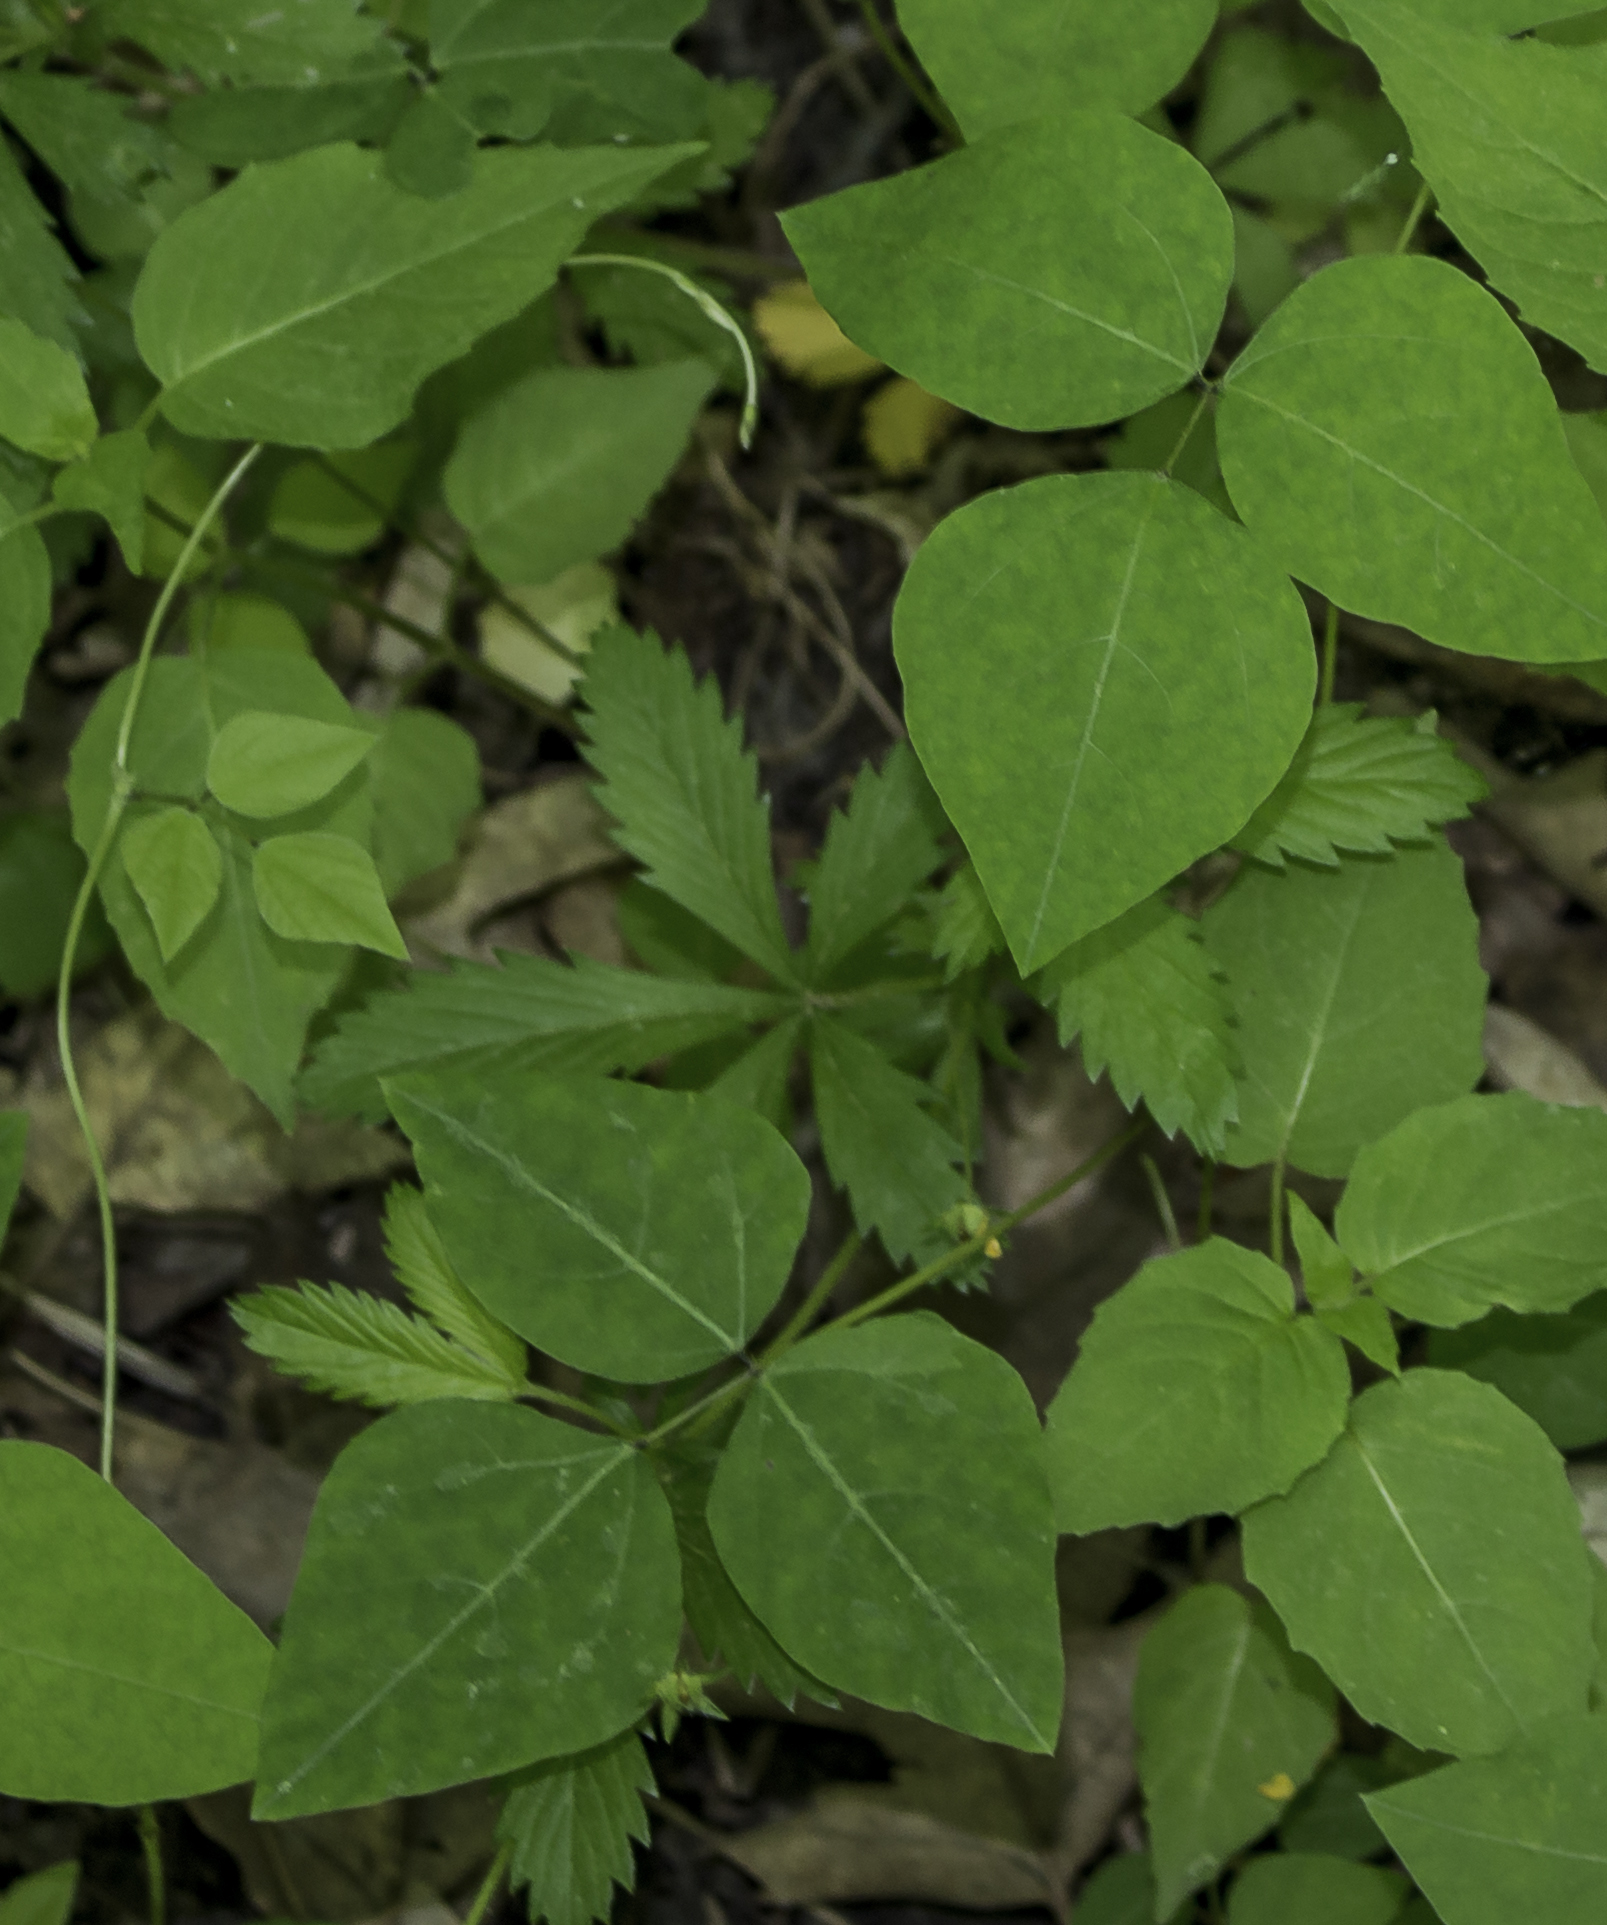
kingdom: Plantae
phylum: Tracheophyta
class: Magnoliopsida
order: Fabales
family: Fabaceae
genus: Amphicarpaea
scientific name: Amphicarpaea bracteata
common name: American hog peanut
